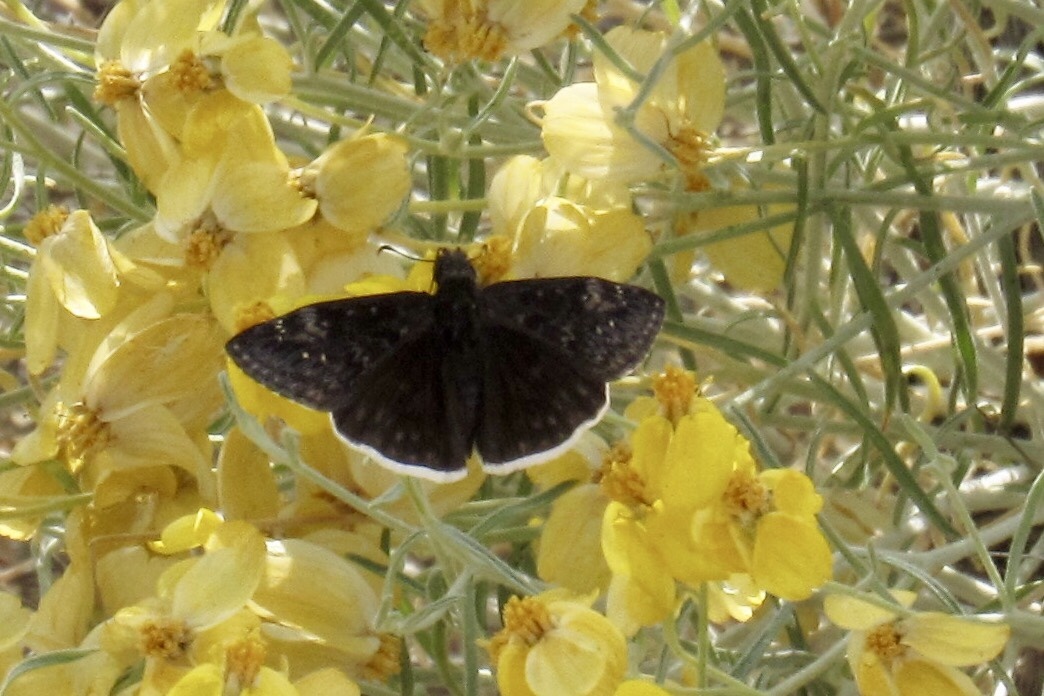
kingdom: Animalia
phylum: Arthropoda
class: Insecta
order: Lepidoptera
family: Hesperiidae
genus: Erynnis
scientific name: Erynnis funeralis
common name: Funereal duskywing
